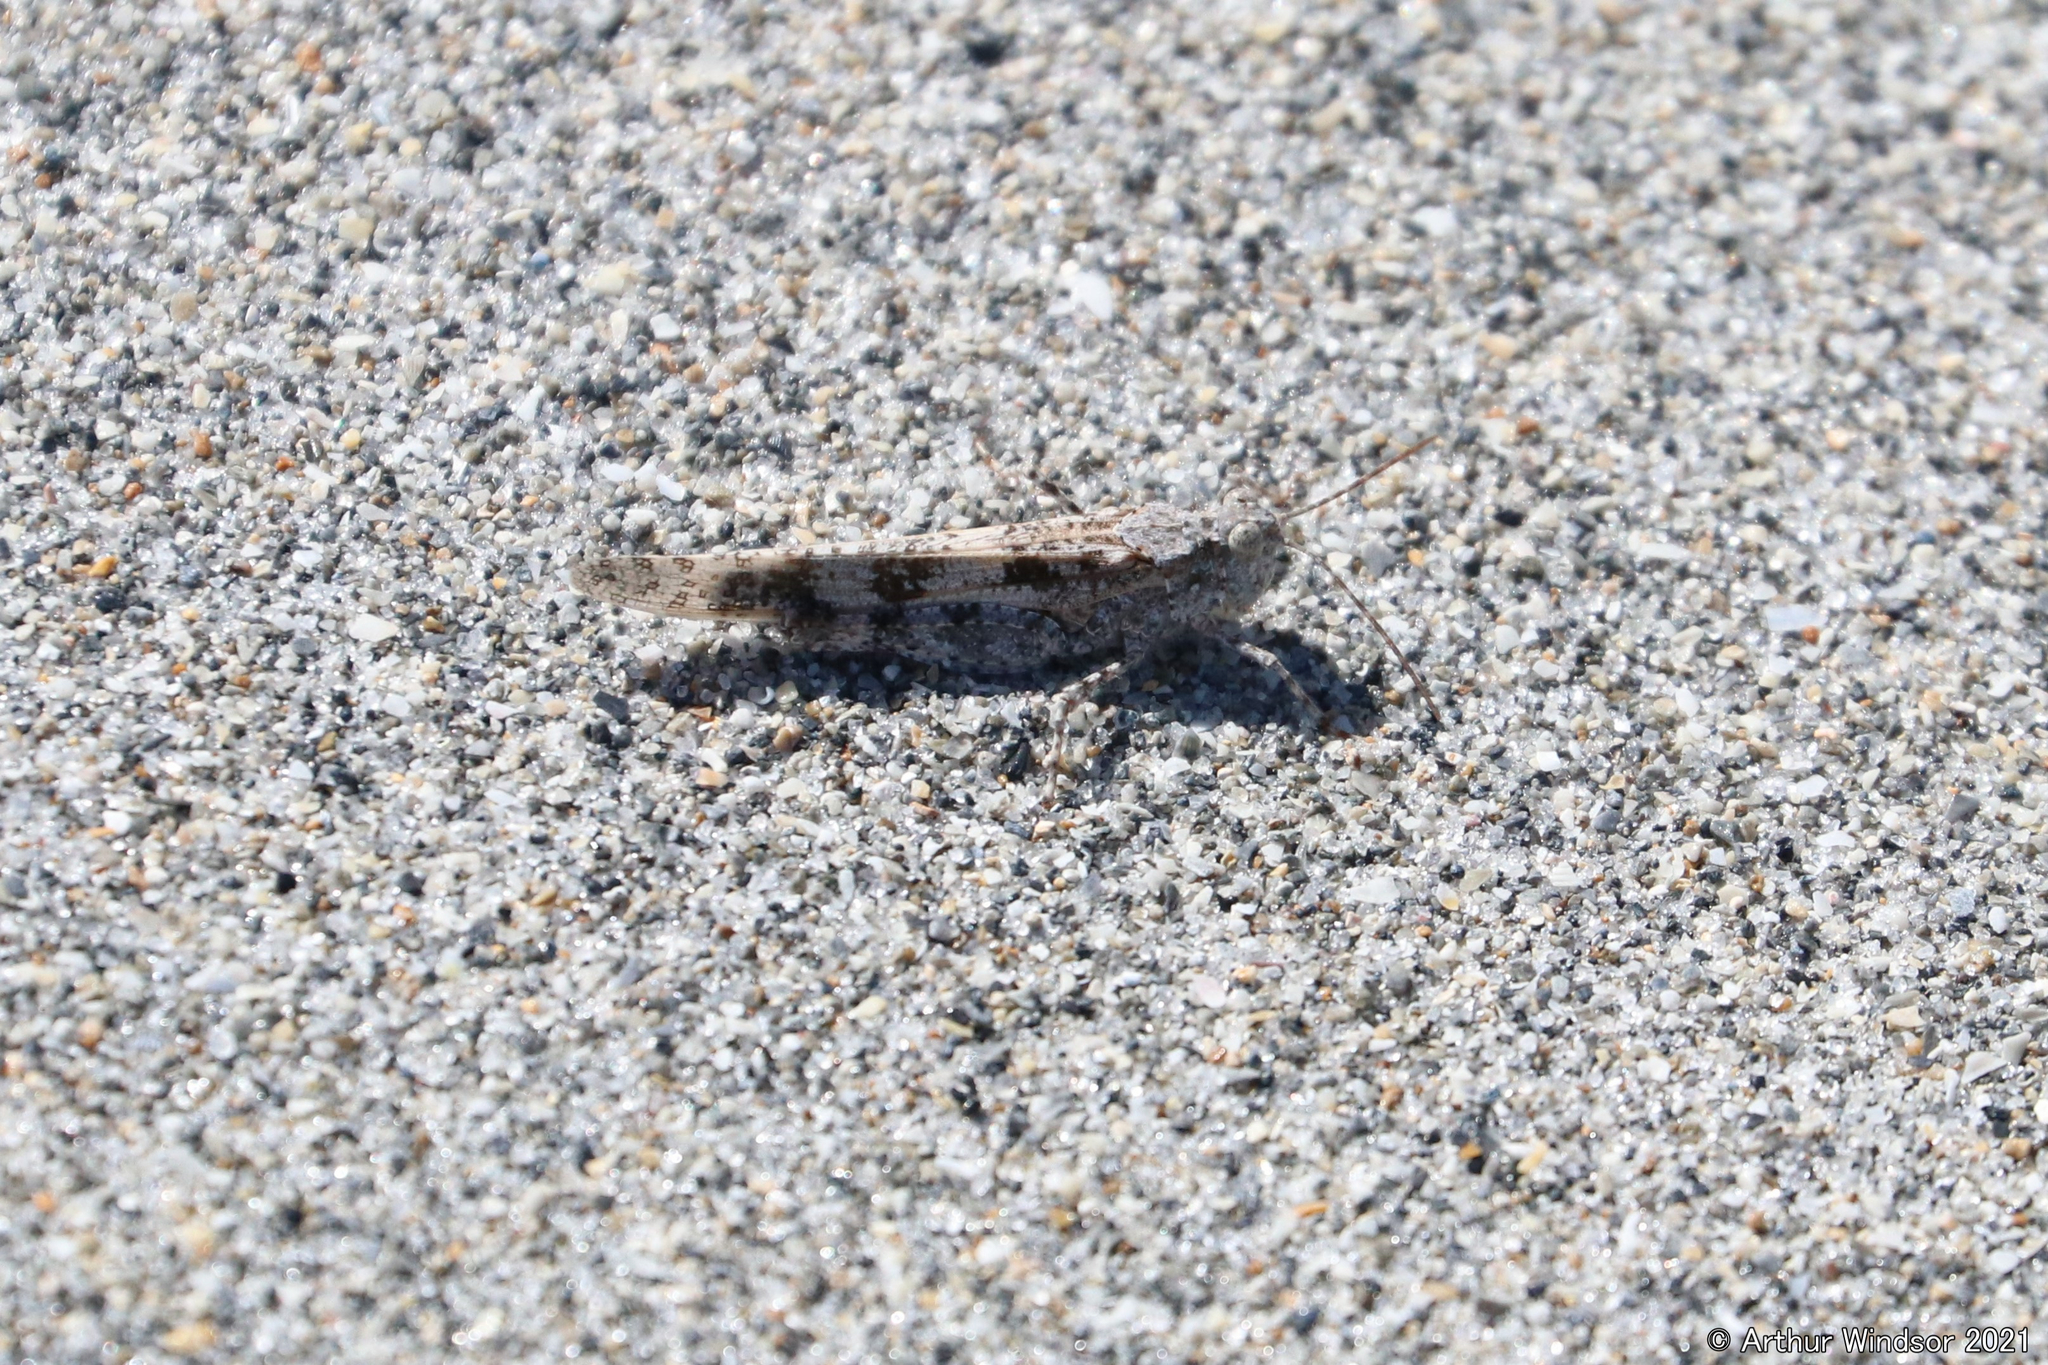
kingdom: Animalia
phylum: Arthropoda
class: Insecta
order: Orthoptera
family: Acrididae
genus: Trimerotropis
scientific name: Trimerotropis maritima
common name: Seaside locust
